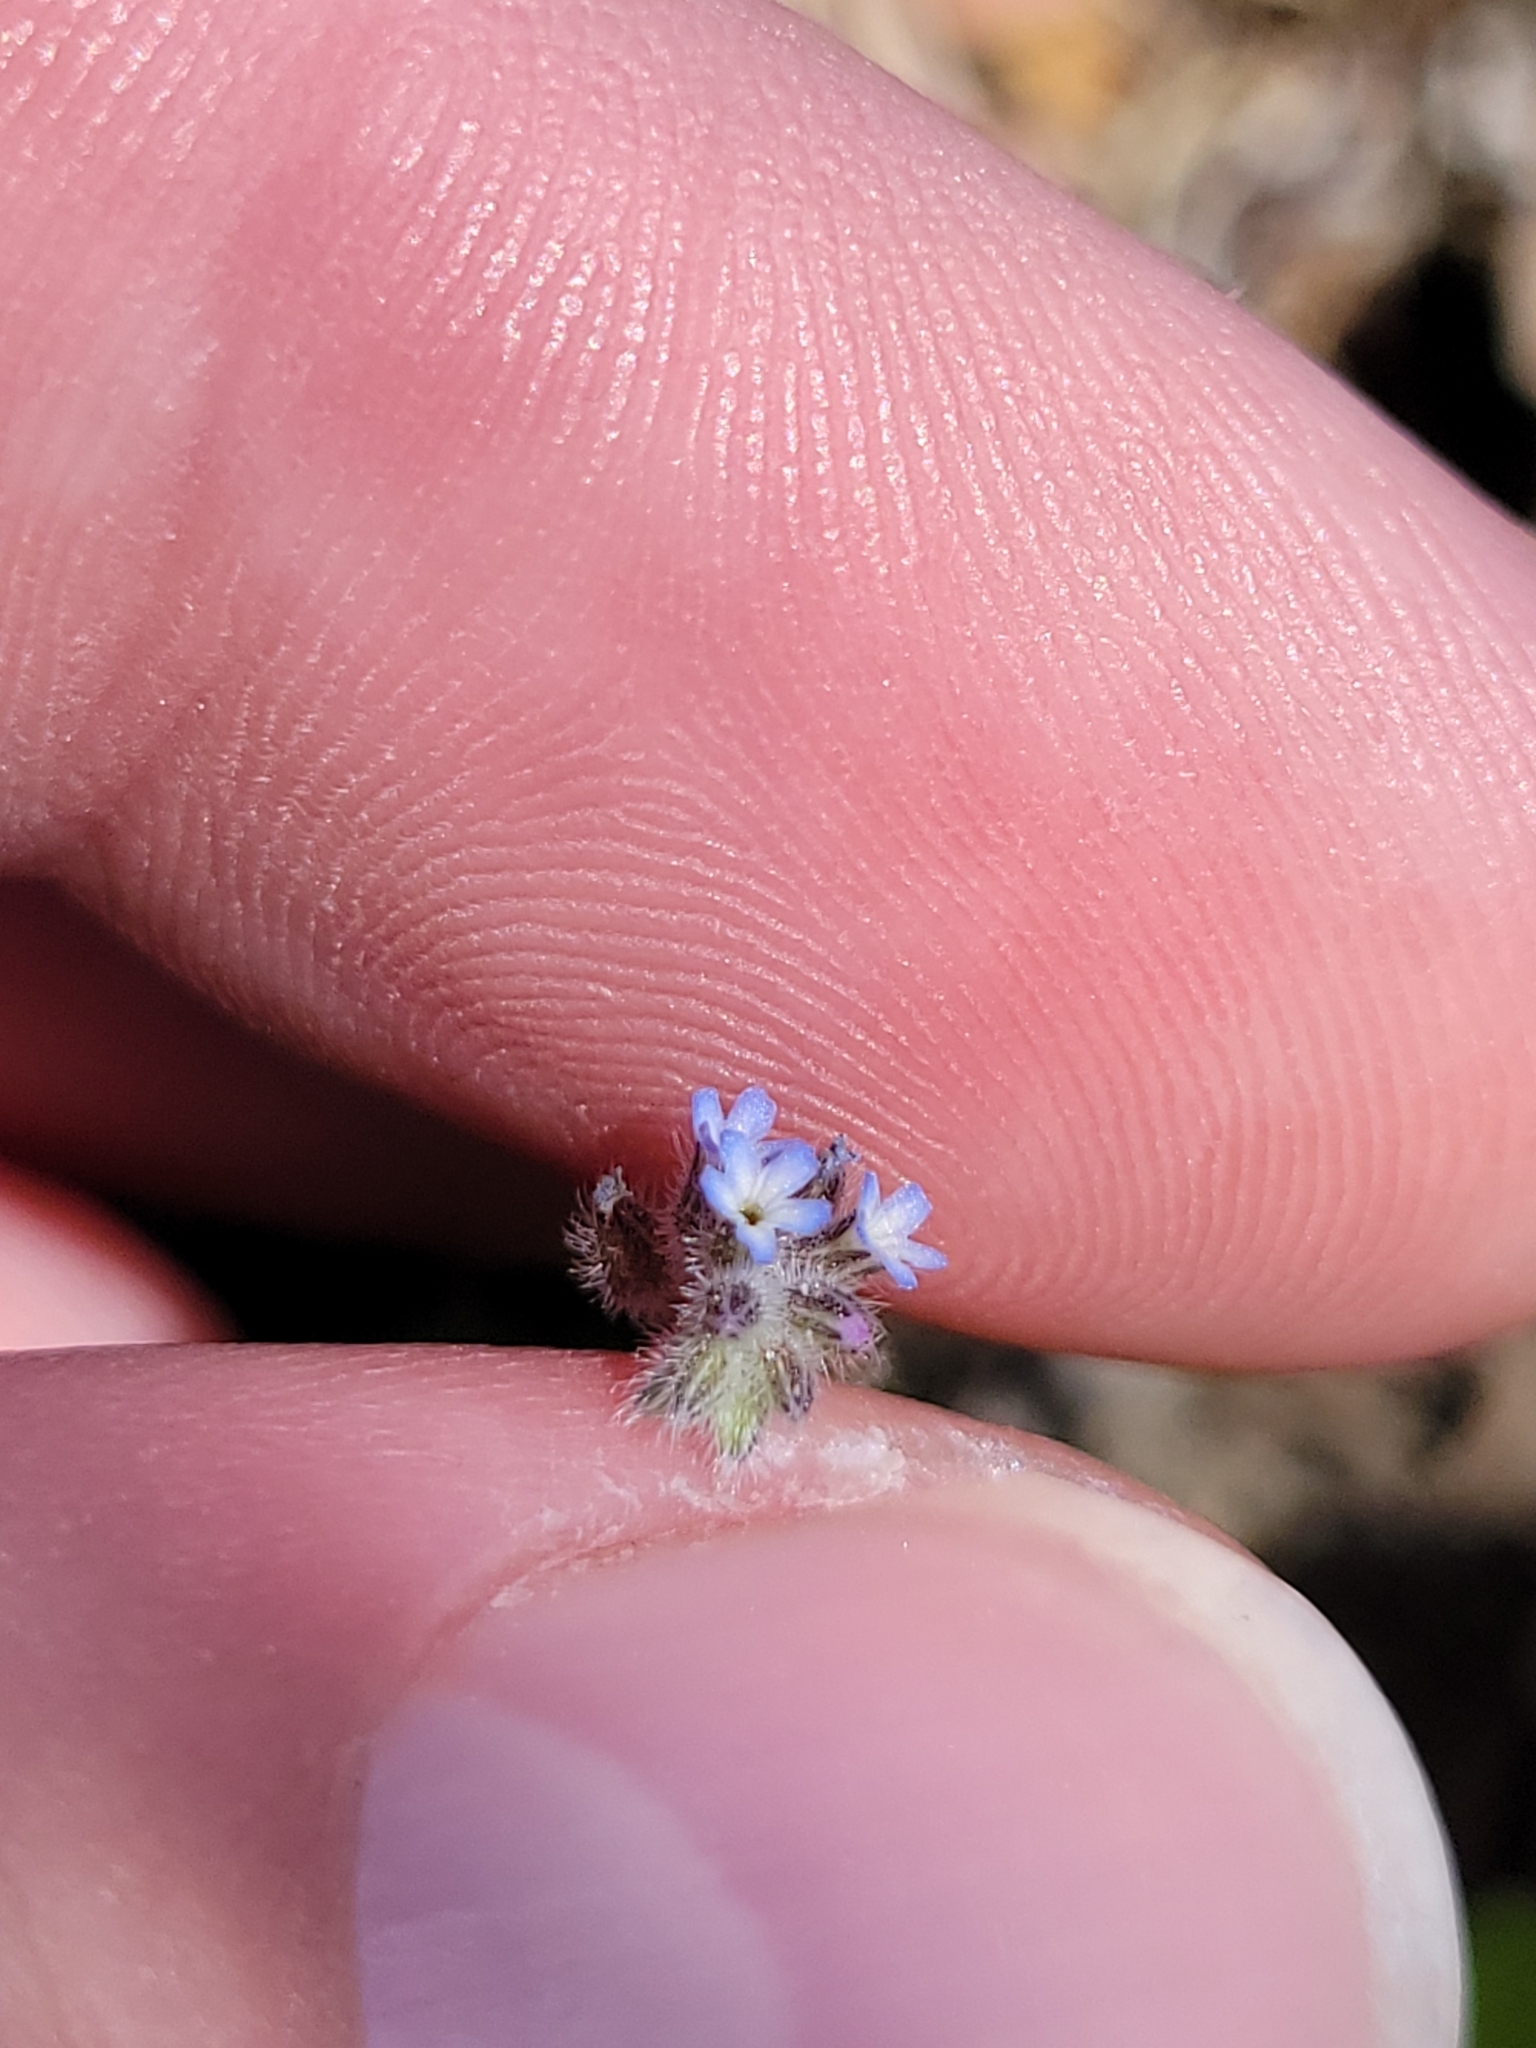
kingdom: Plantae
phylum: Tracheophyta
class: Magnoliopsida
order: Boraginales
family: Boraginaceae
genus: Myosotis
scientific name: Myosotis stricta
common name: Strict forget-me-not
